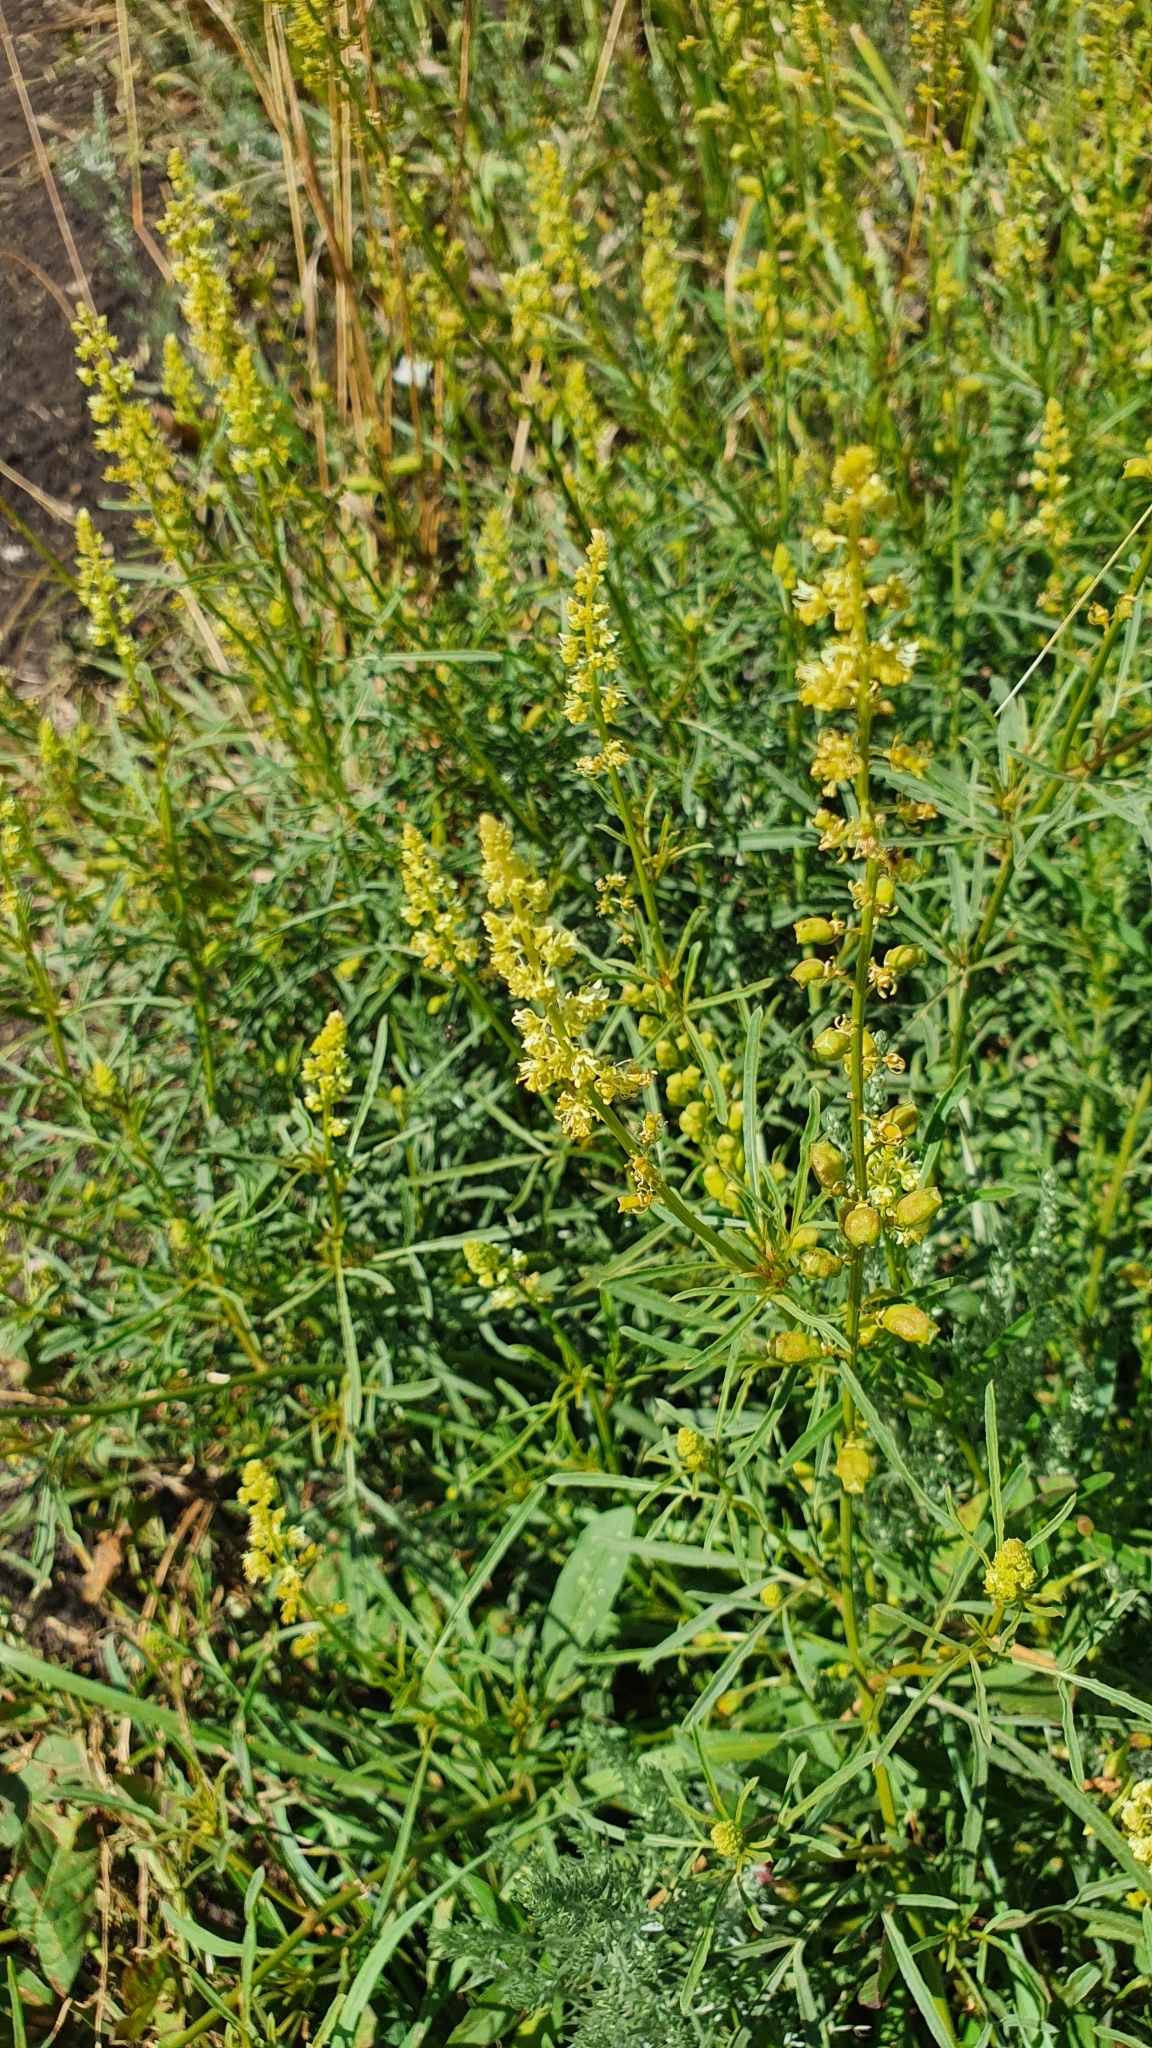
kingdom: Plantae
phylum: Tracheophyta
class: Magnoliopsida
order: Brassicales
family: Resedaceae
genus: Reseda
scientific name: Reseda lutea
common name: Wild mignonette
